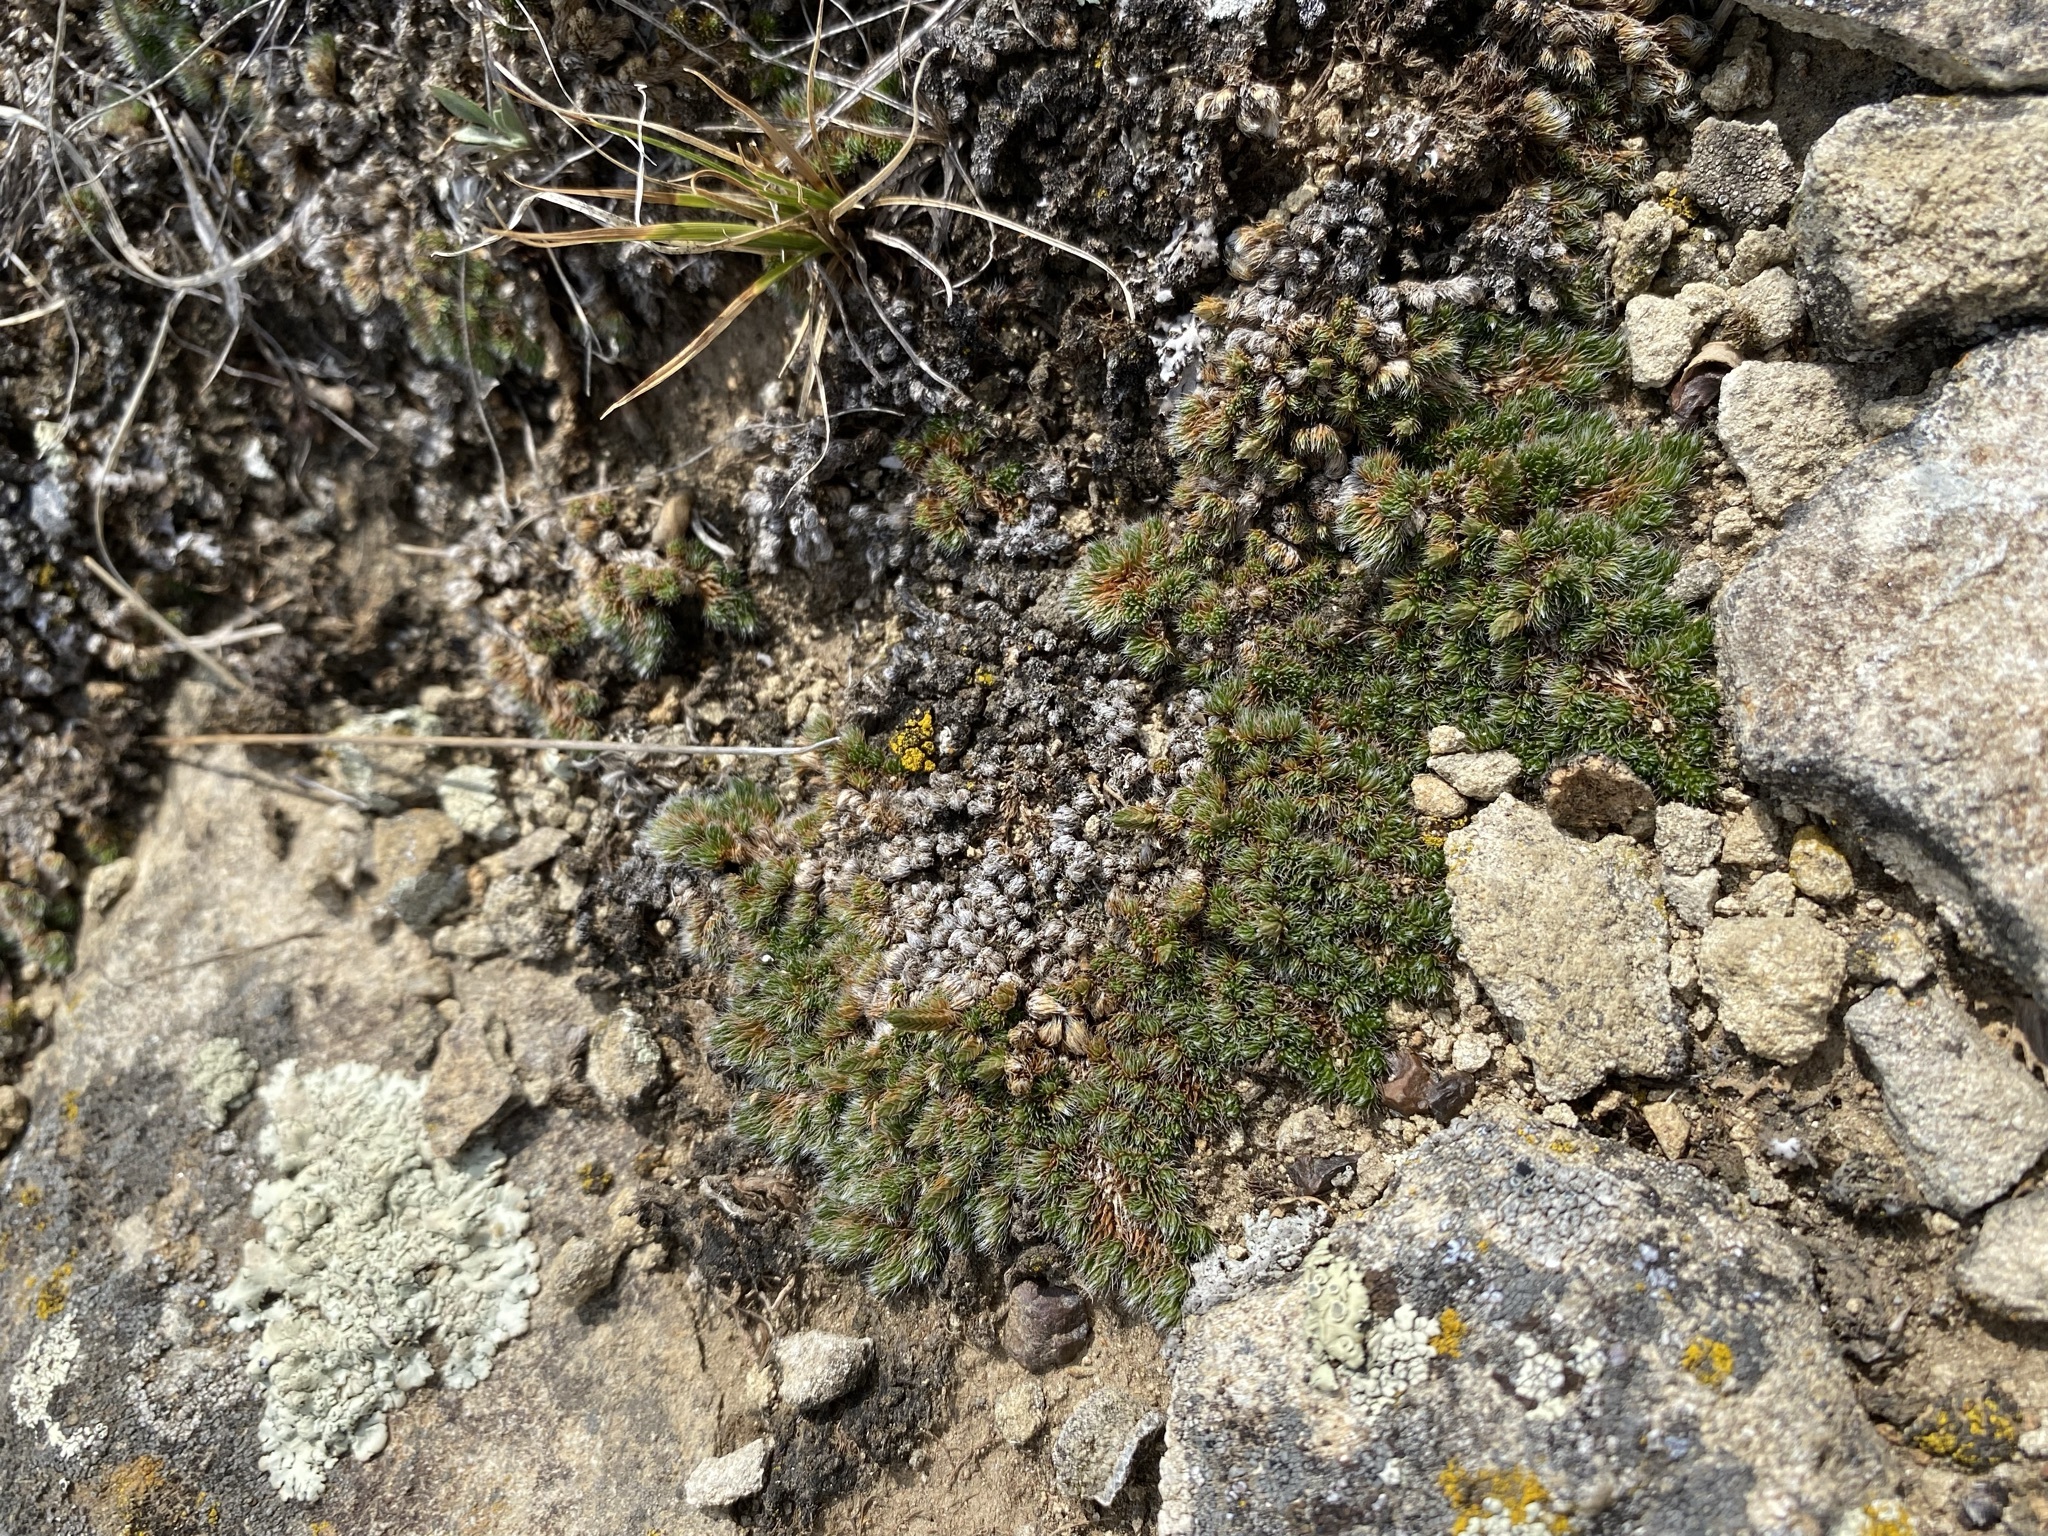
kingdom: Plantae
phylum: Tracheophyta
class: Lycopodiopsida
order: Selaginellales
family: Selaginellaceae
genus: Selaginella
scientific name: Selaginella densa
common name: Mountain spike-moss
